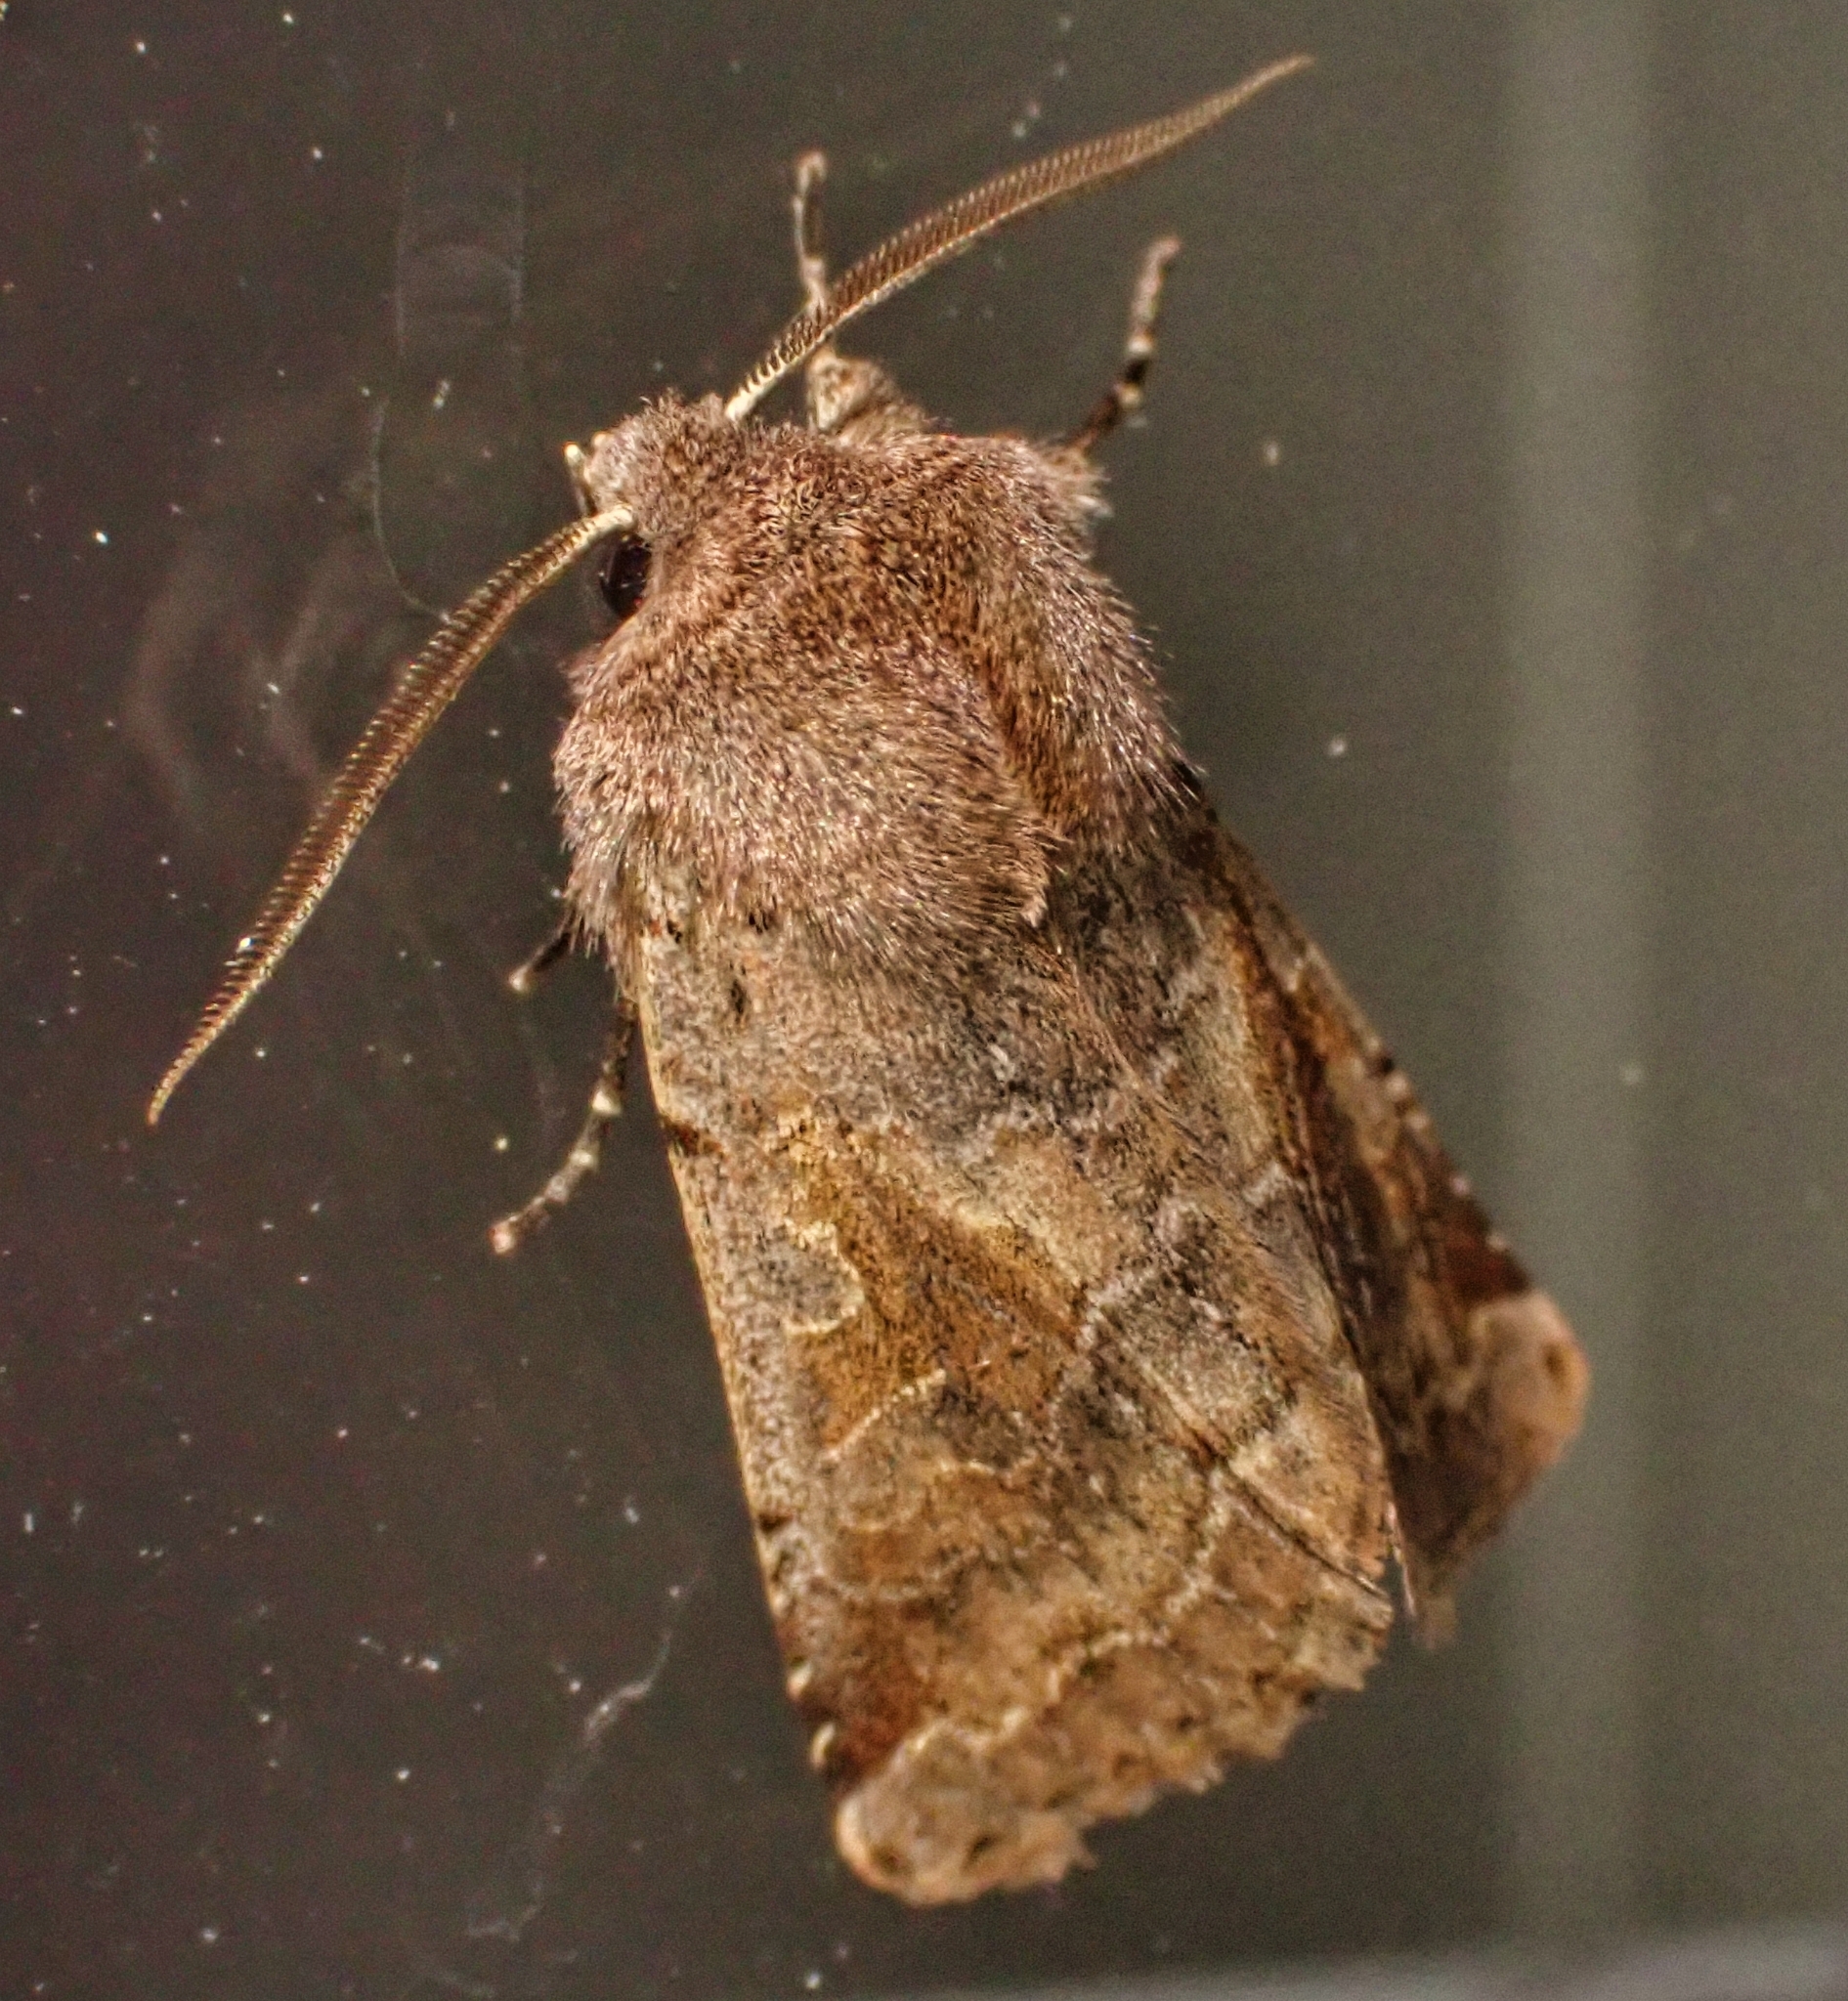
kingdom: Animalia
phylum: Arthropoda
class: Insecta
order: Lepidoptera
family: Noctuidae
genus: Orthosia
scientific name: Orthosia gothica
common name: Hebrew character
